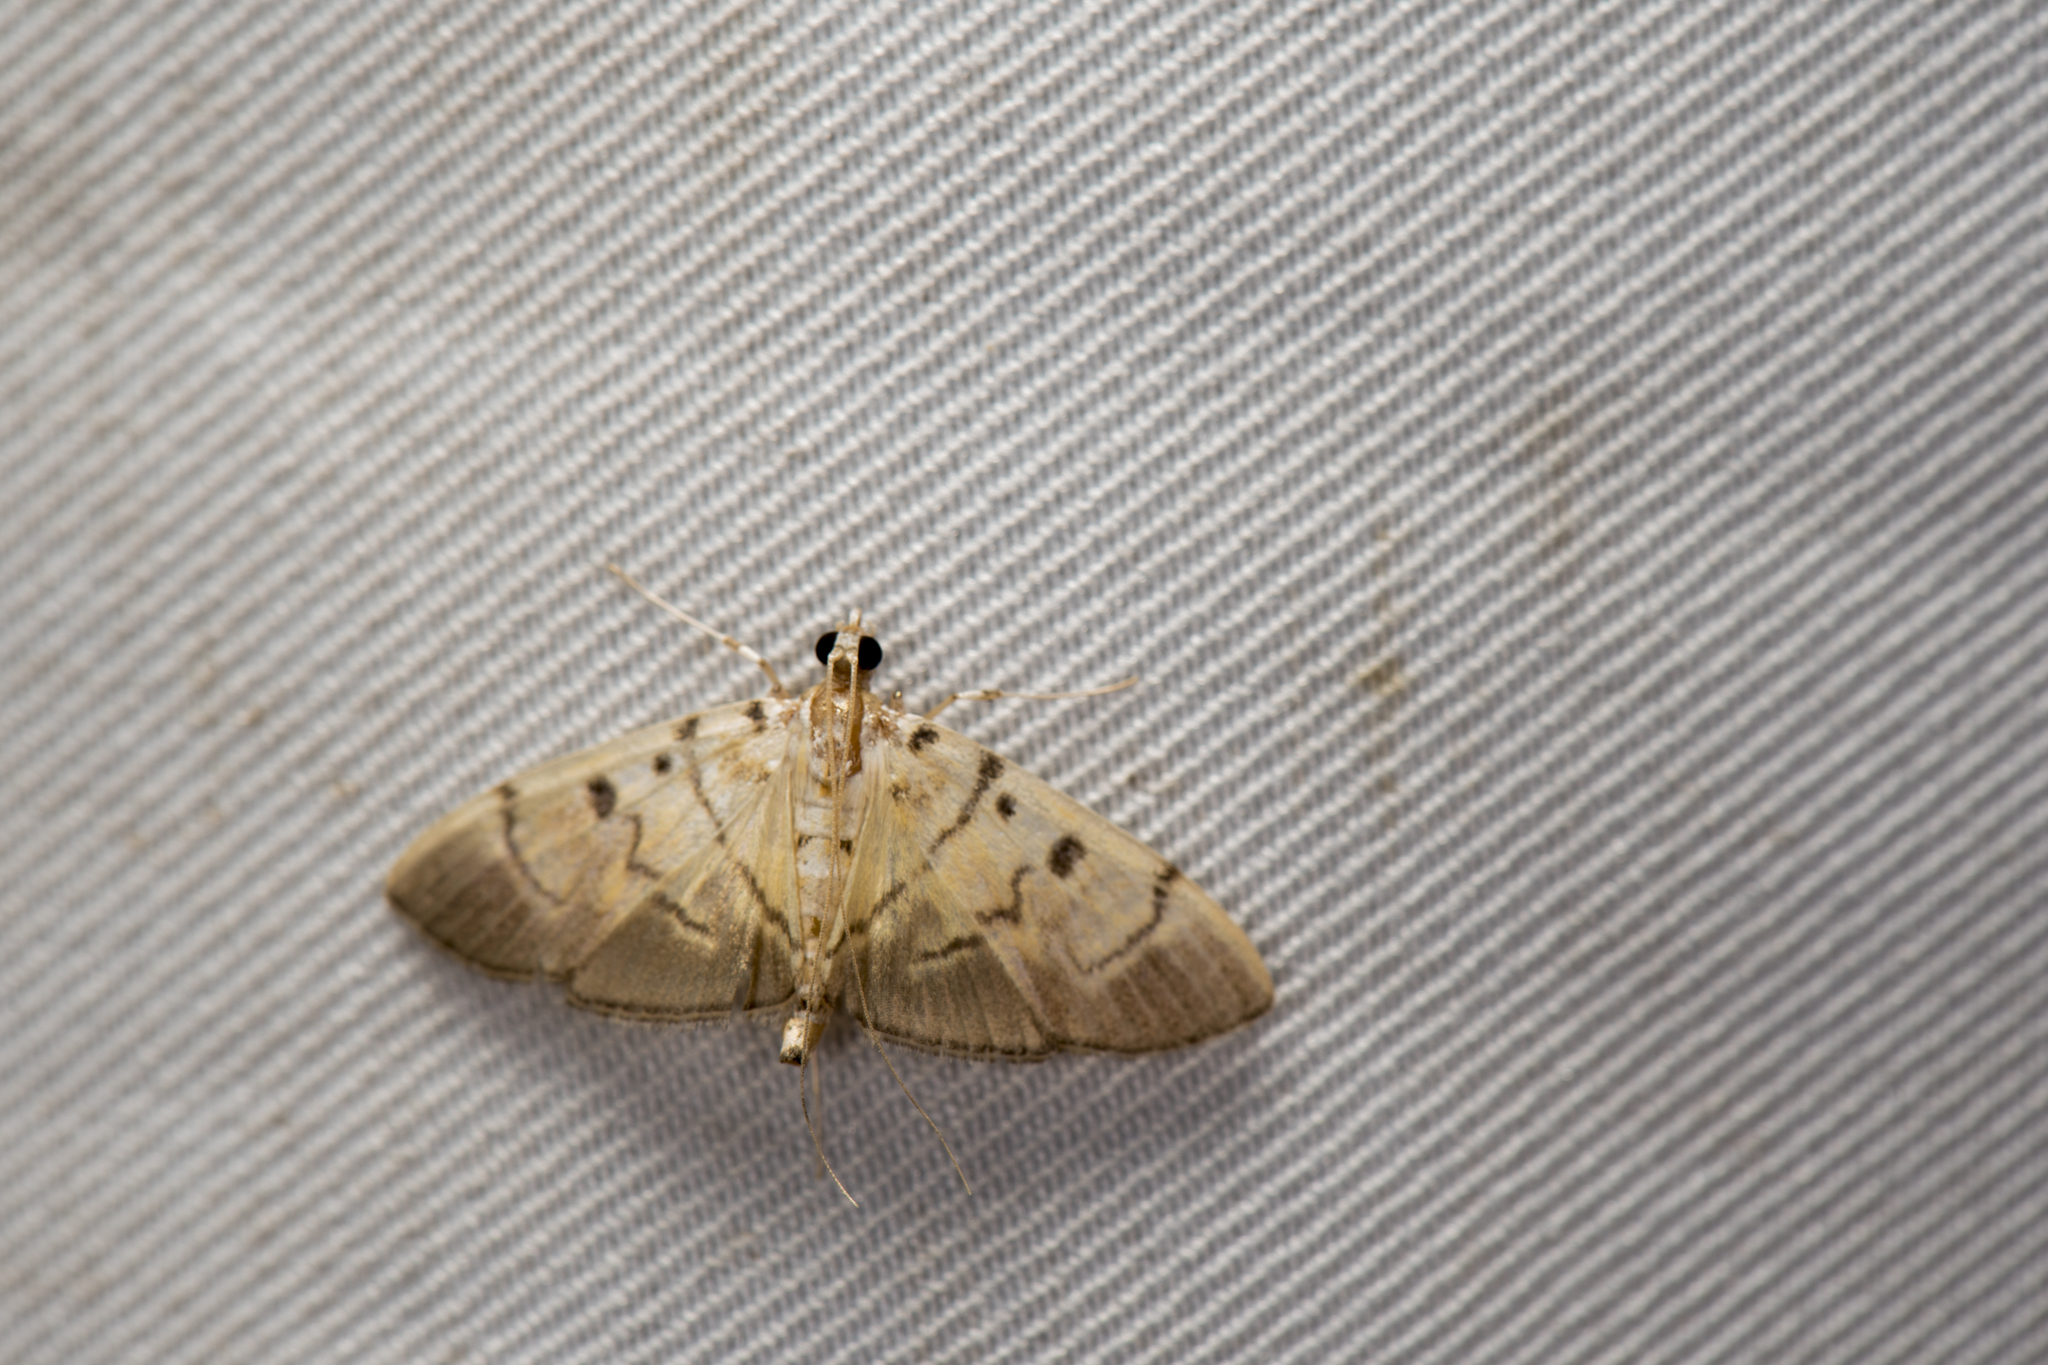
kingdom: Animalia
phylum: Arthropoda
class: Insecta
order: Lepidoptera
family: Crambidae
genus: Dichocrocis
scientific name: Dichocrocis definita
